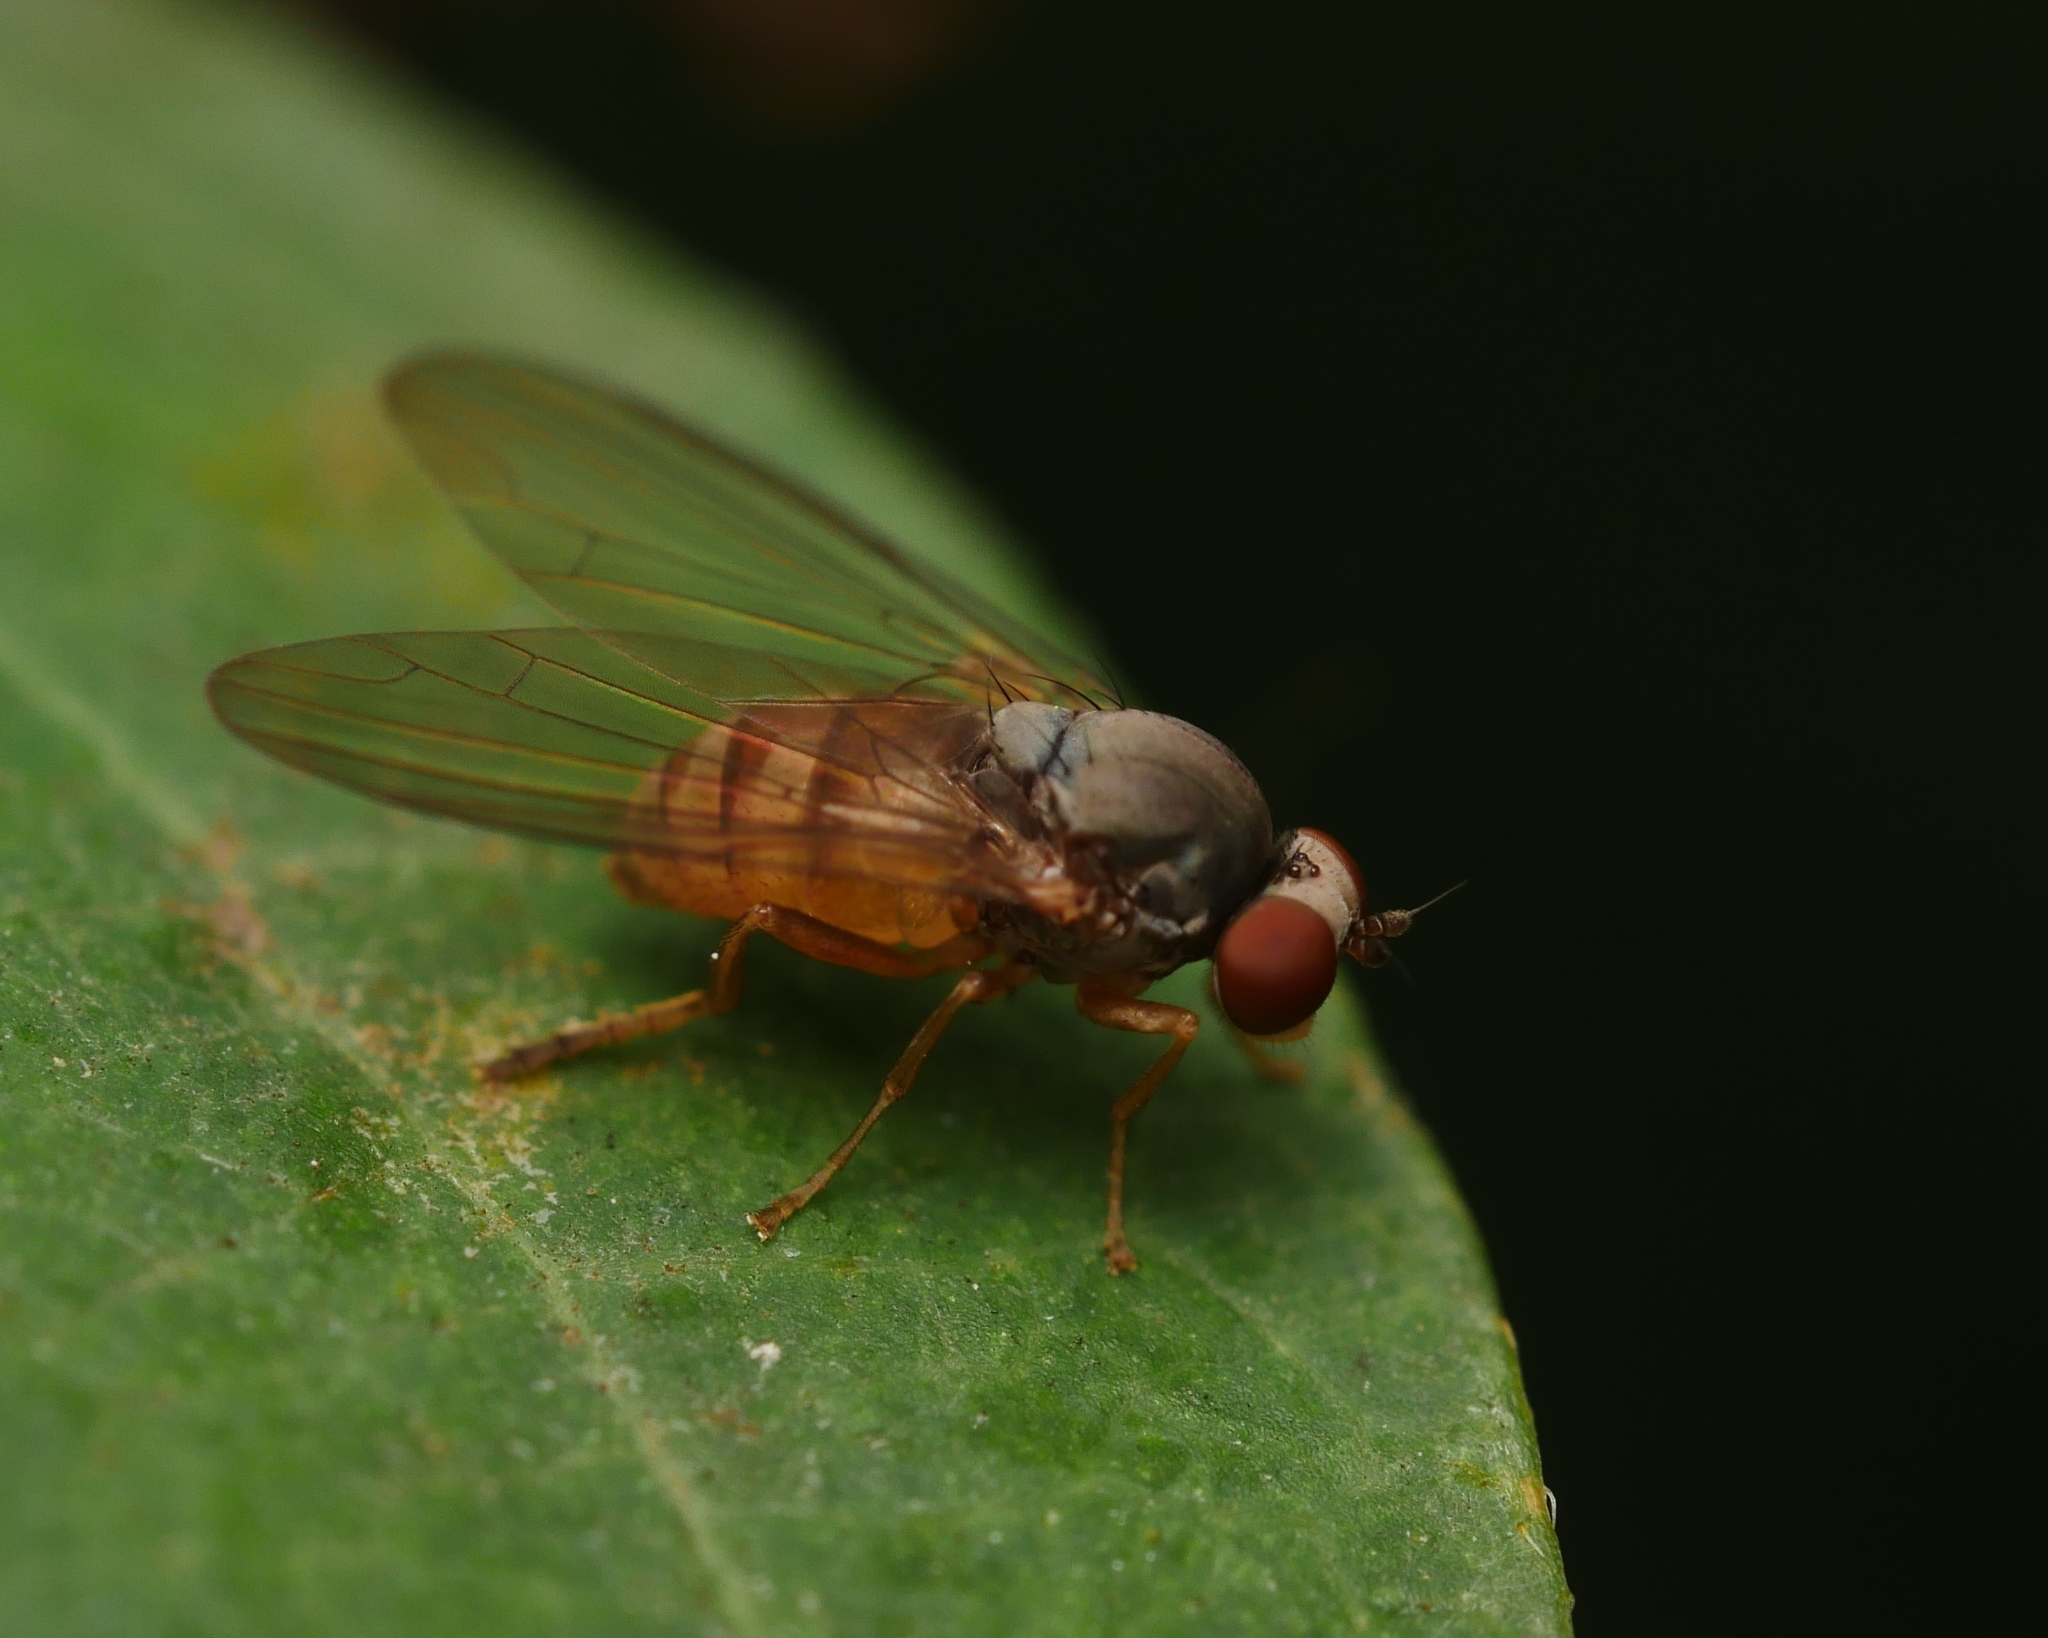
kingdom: Animalia
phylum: Arthropoda
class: Insecta
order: Diptera
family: Platypezidae
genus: Protoclythia
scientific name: Protoclythia rufa
